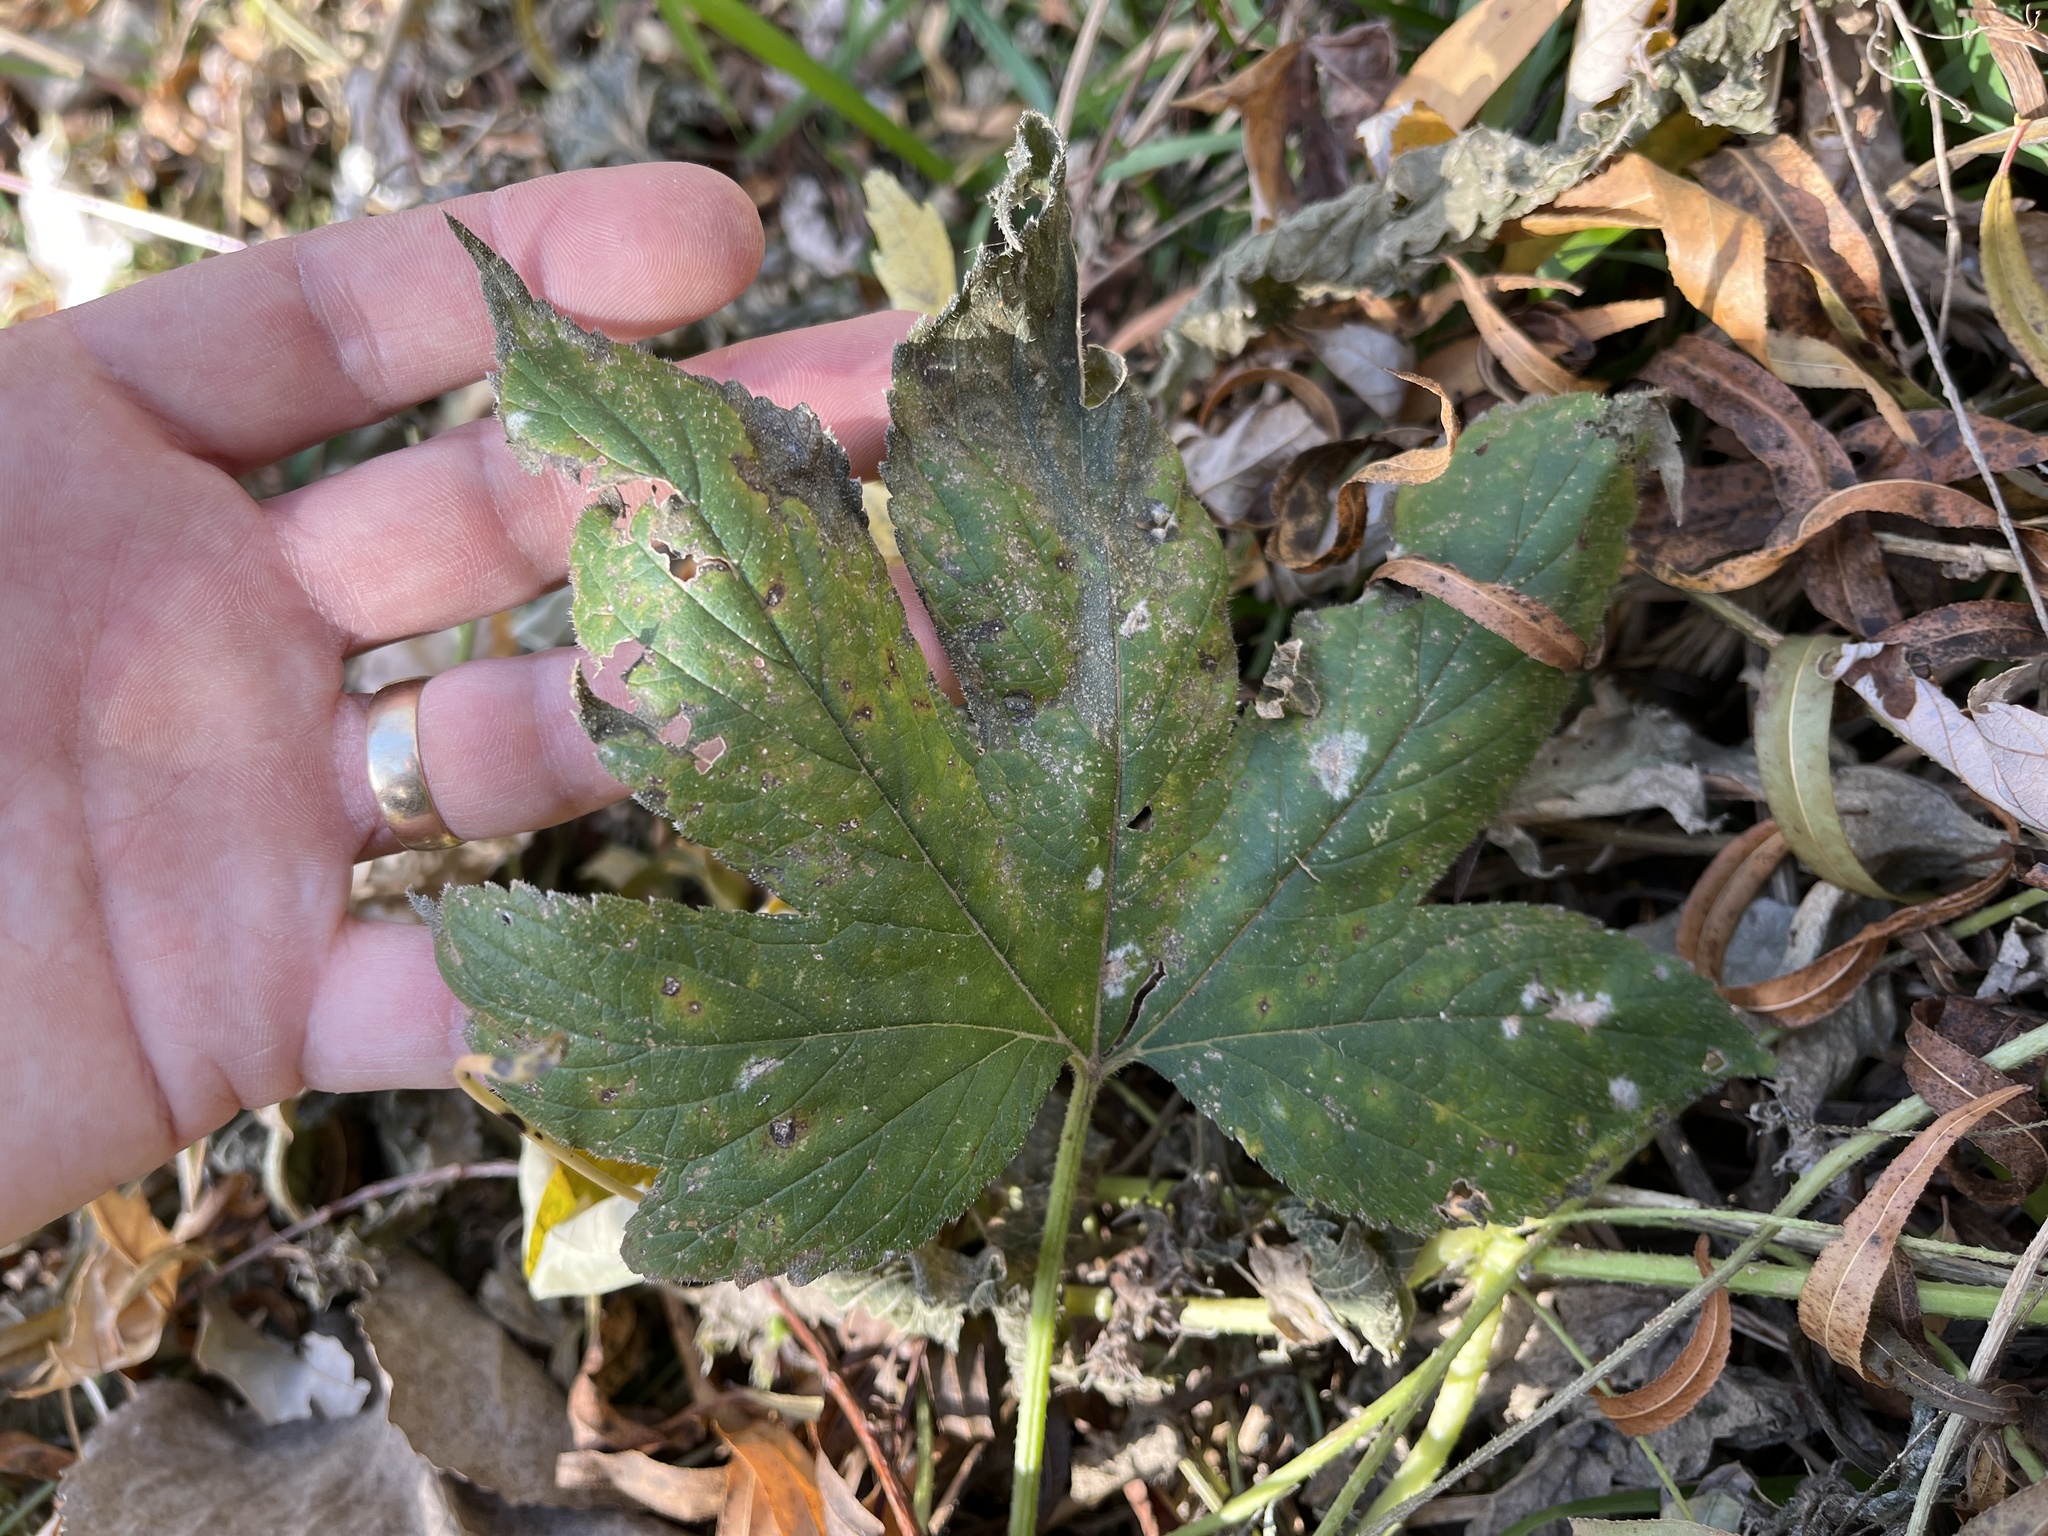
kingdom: Plantae
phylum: Tracheophyta
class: Magnoliopsida
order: Rosales
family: Cannabaceae
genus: Humulus
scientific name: Humulus scandens
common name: Japanese hop
